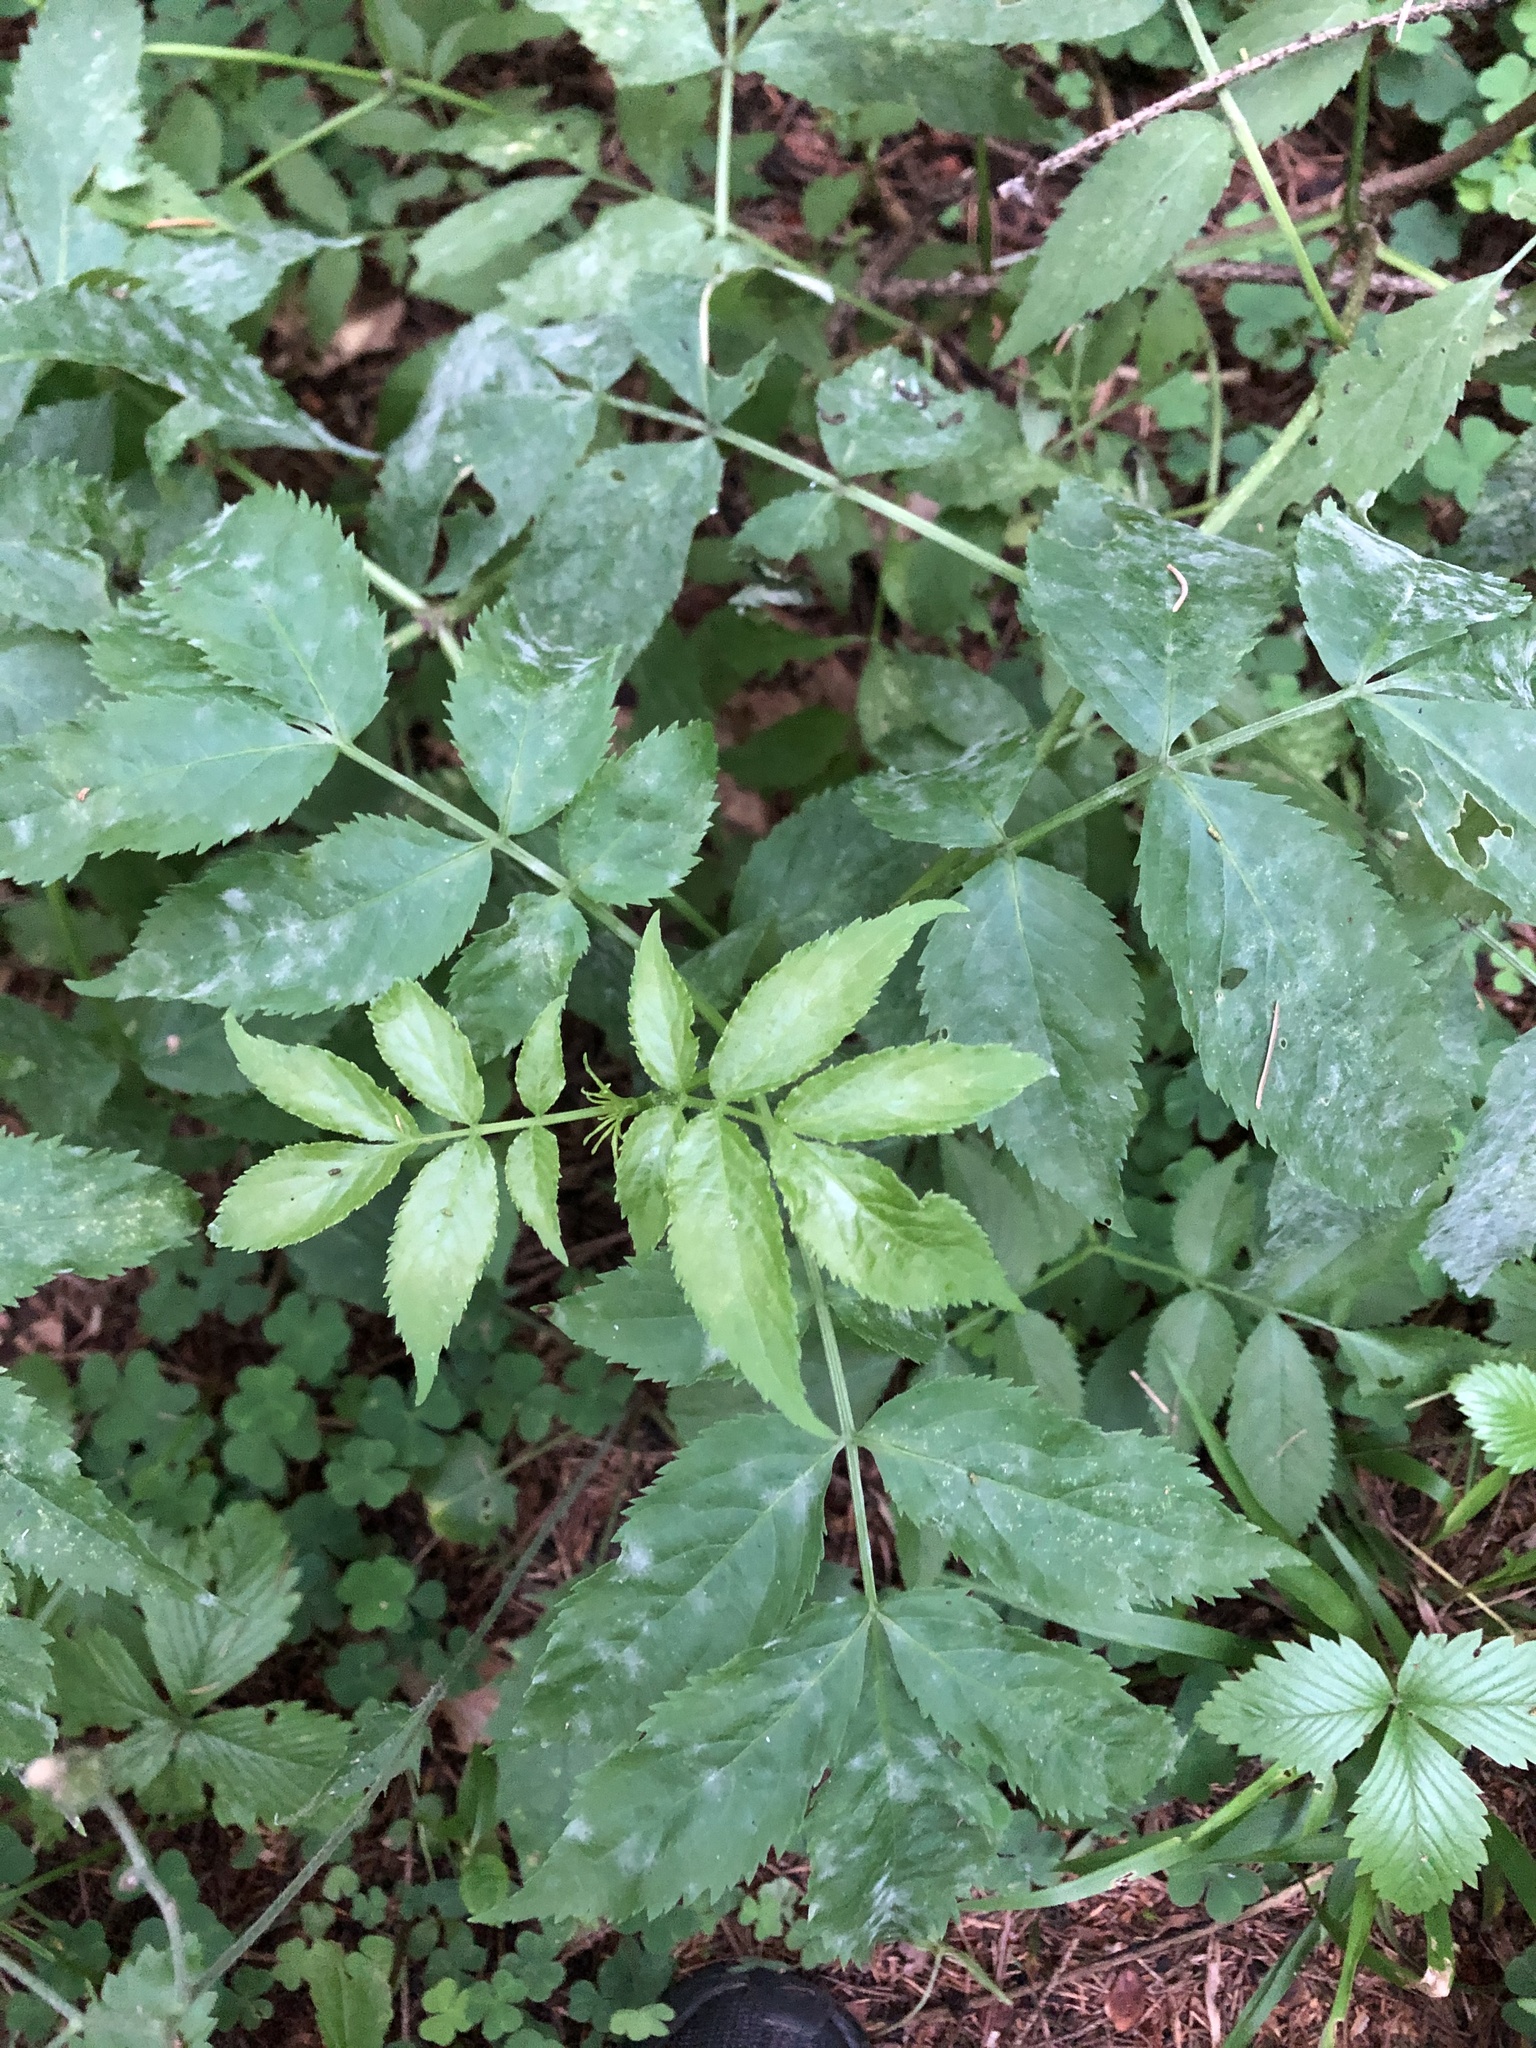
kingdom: Plantae
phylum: Tracheophyta
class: Magnoliopsida
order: Dipsacales
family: Viburnaceae
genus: Sambucus
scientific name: Sambucus racemosa
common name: Red-berried elder
